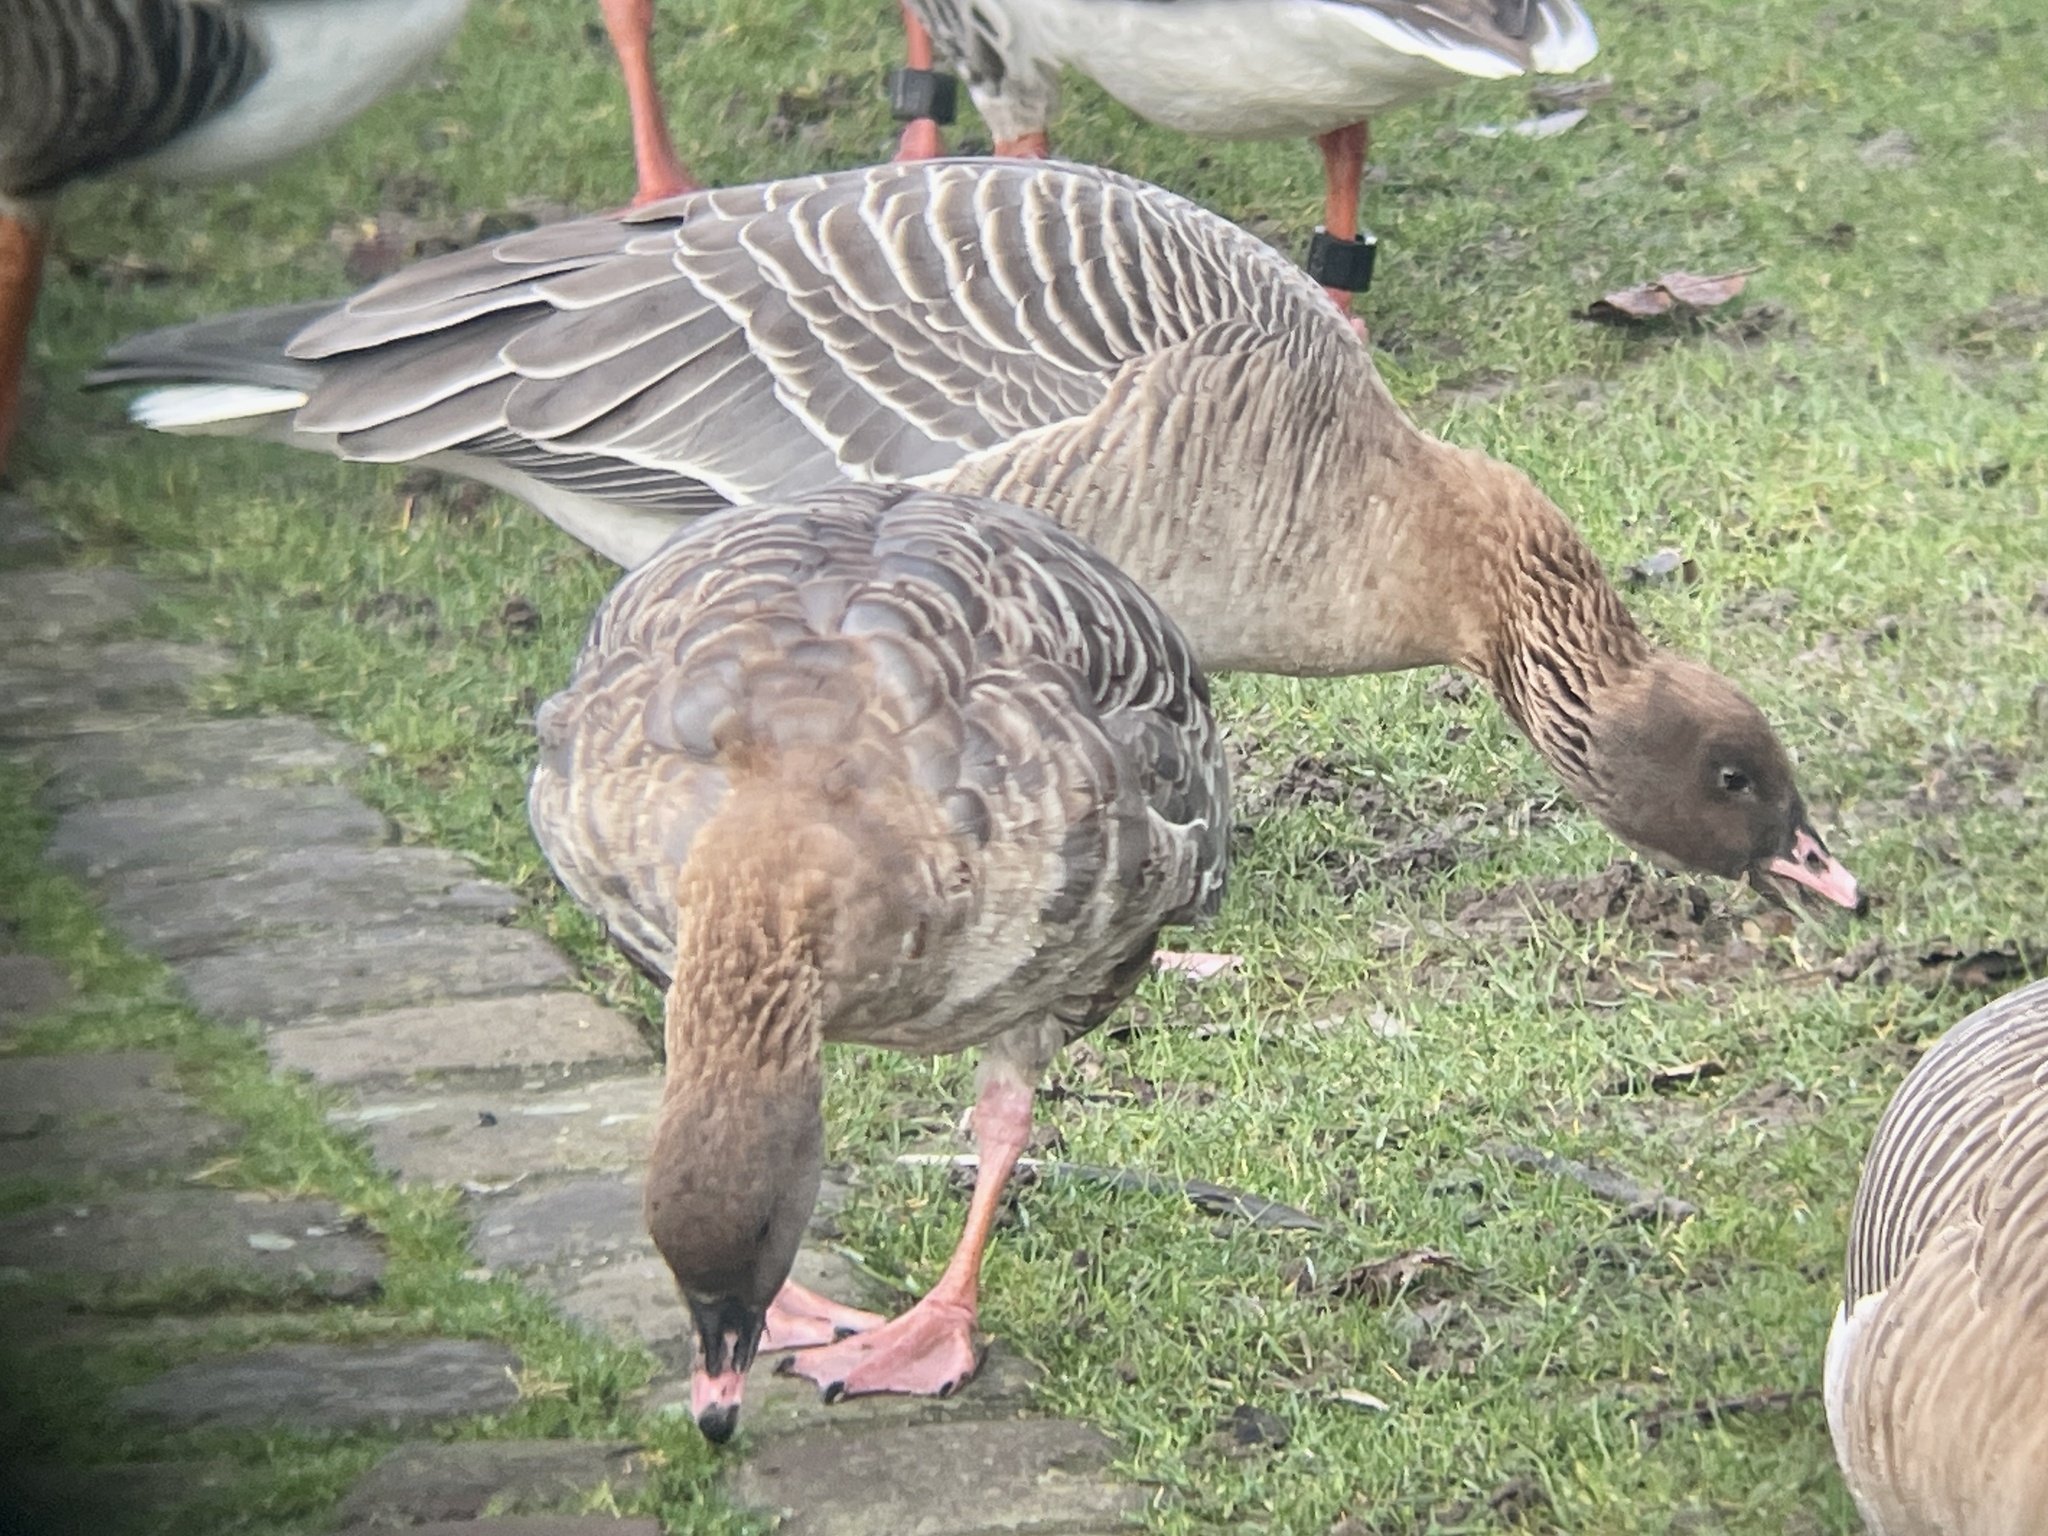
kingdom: Animalia
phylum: Chordata
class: Aves
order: Anseriformes
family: Anatidae
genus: Anser
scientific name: Anser brachyrhynchus
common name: Pink-footed goose
